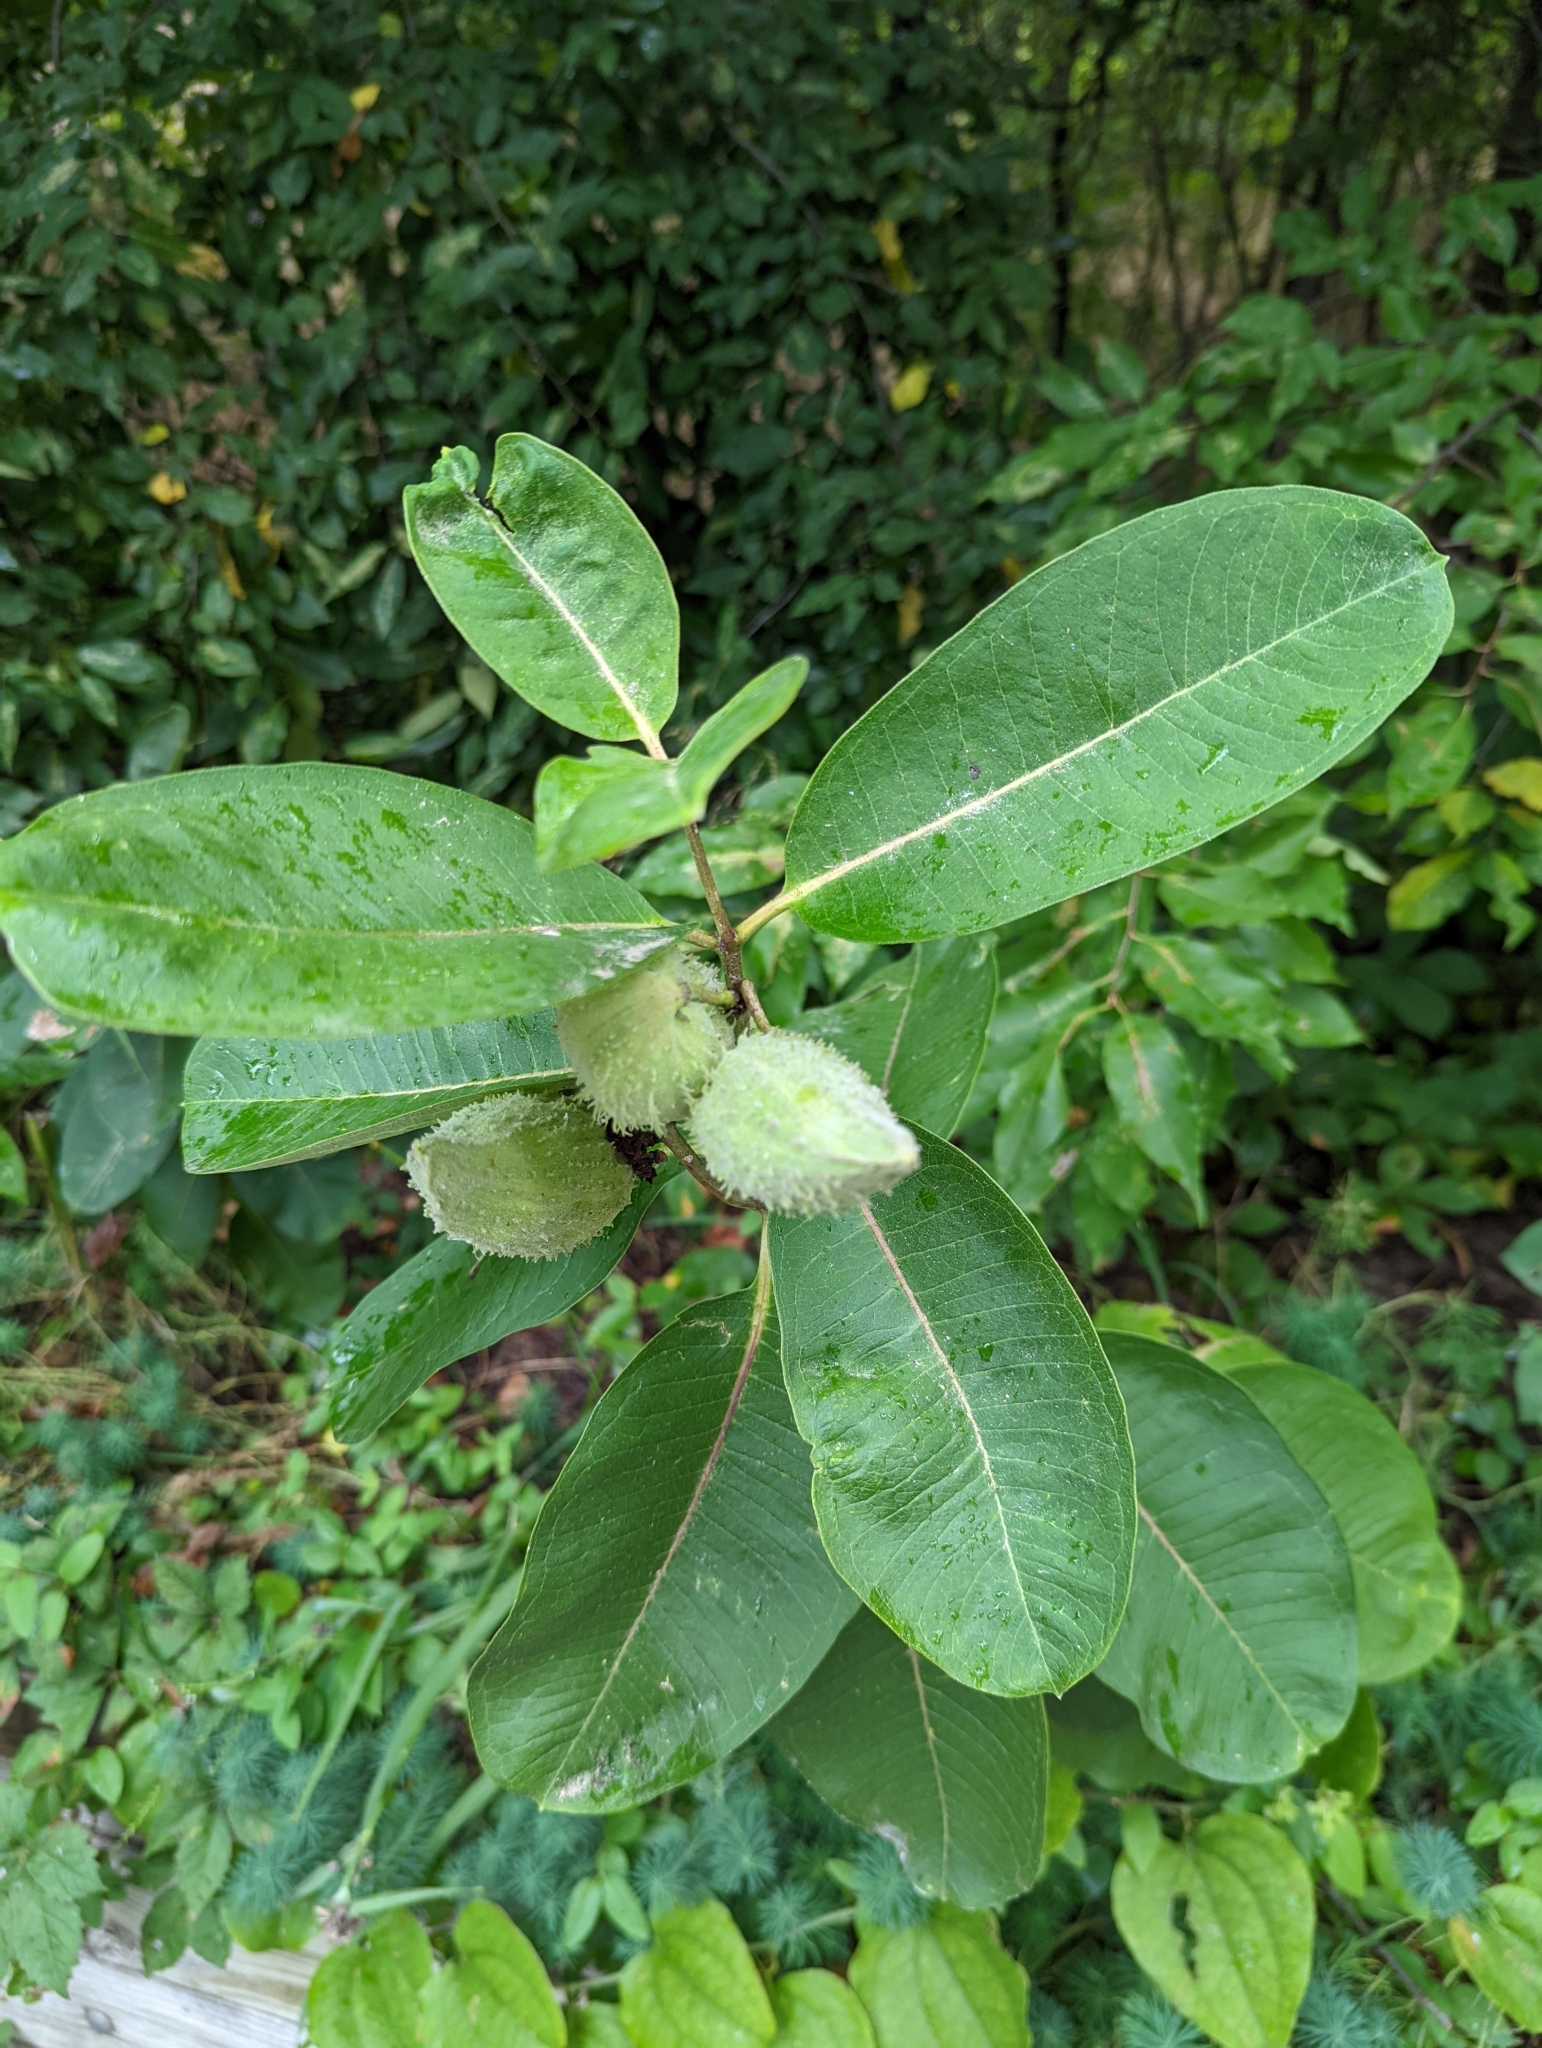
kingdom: Plantae
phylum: Tracheophyta
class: Magnoliopsida
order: Gentianales
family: Apocynaceae
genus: Asclepias
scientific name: Asclepias syriaca
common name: Common milkweed
